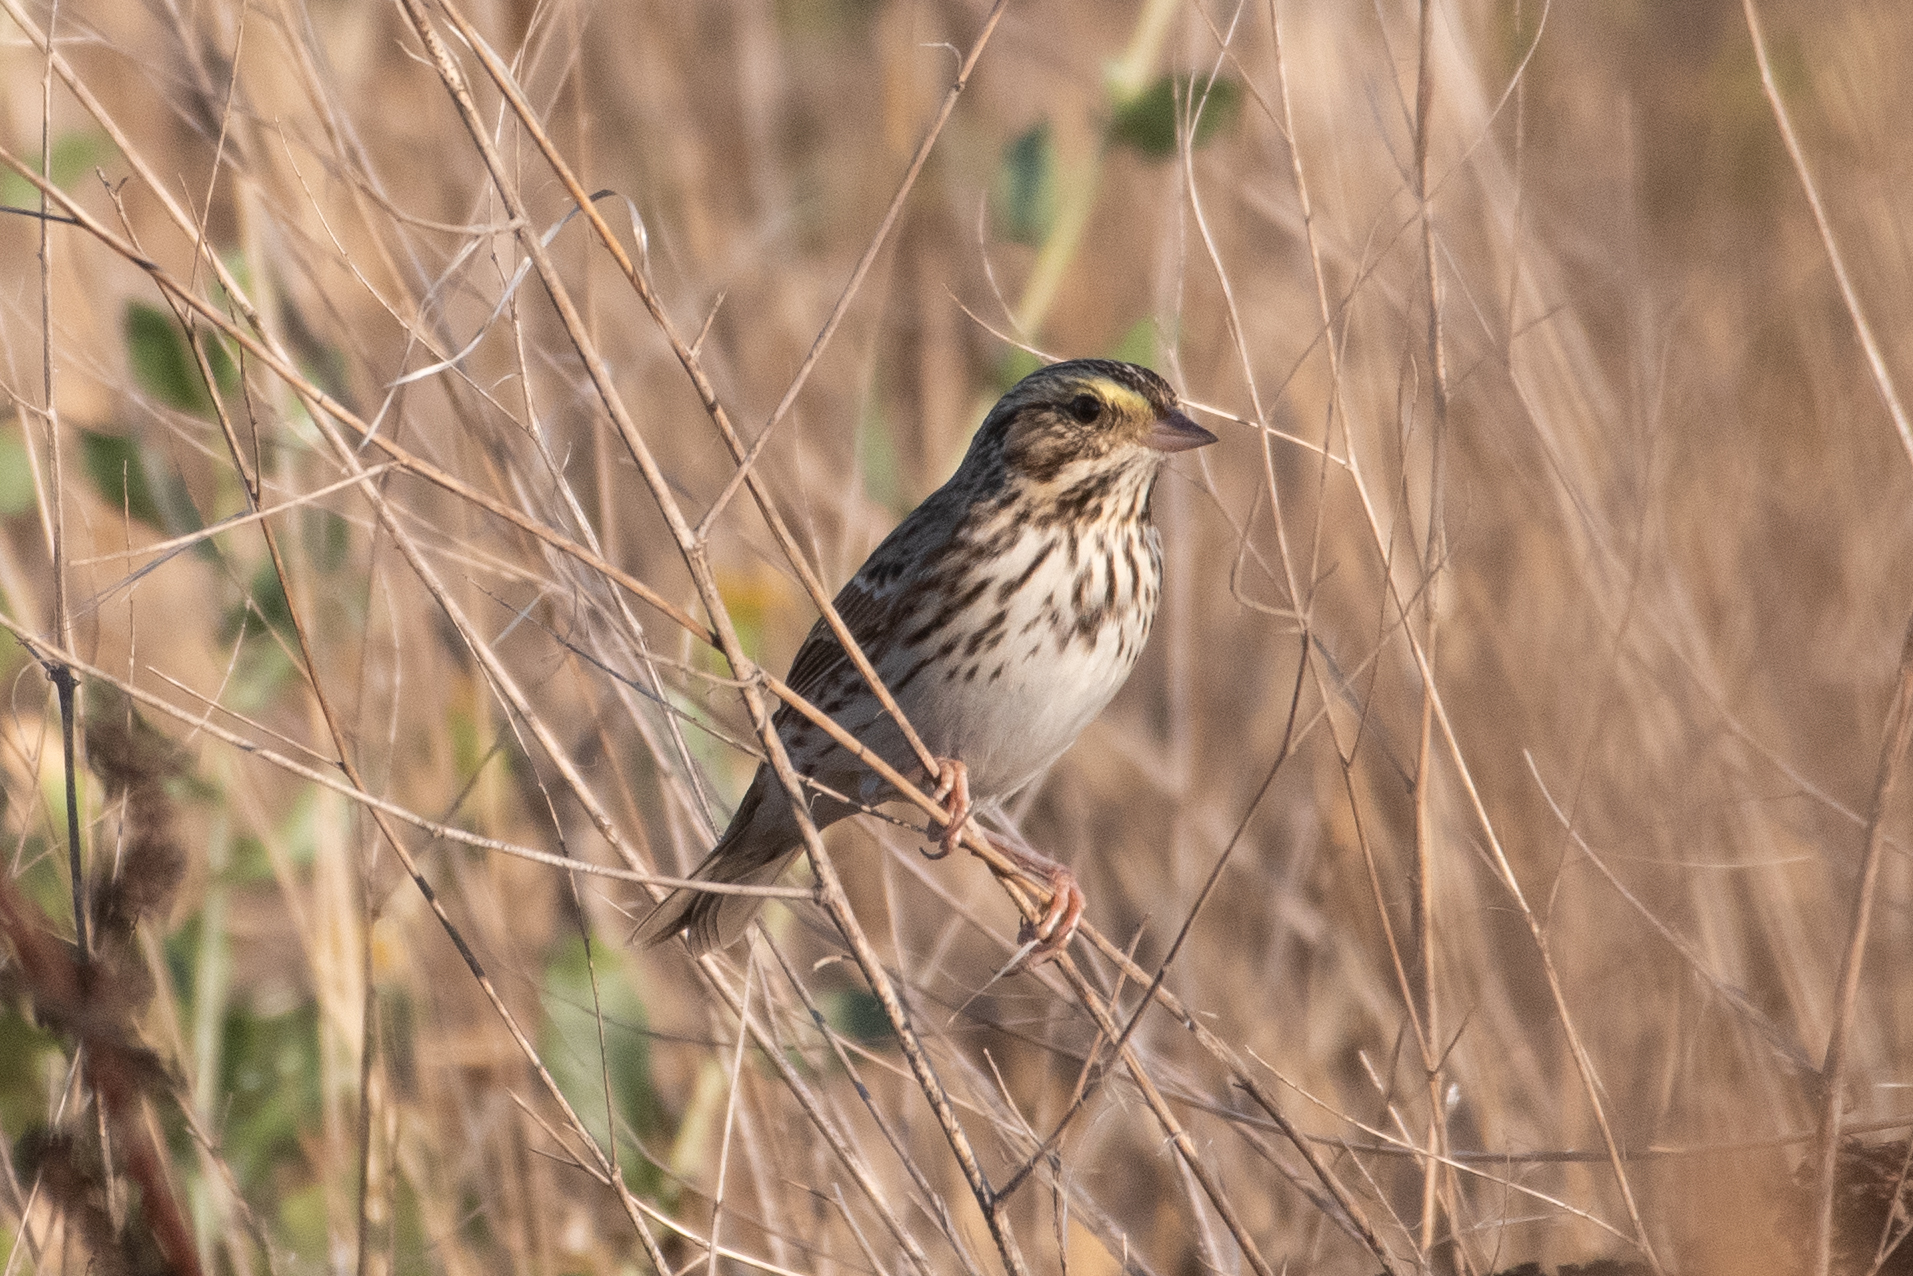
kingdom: Animalia
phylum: Chordata
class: Aves
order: Passeriformes
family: Passerellidae
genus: Passerculus
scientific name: Passerculus sandwichensis
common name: Savannah sparrow
